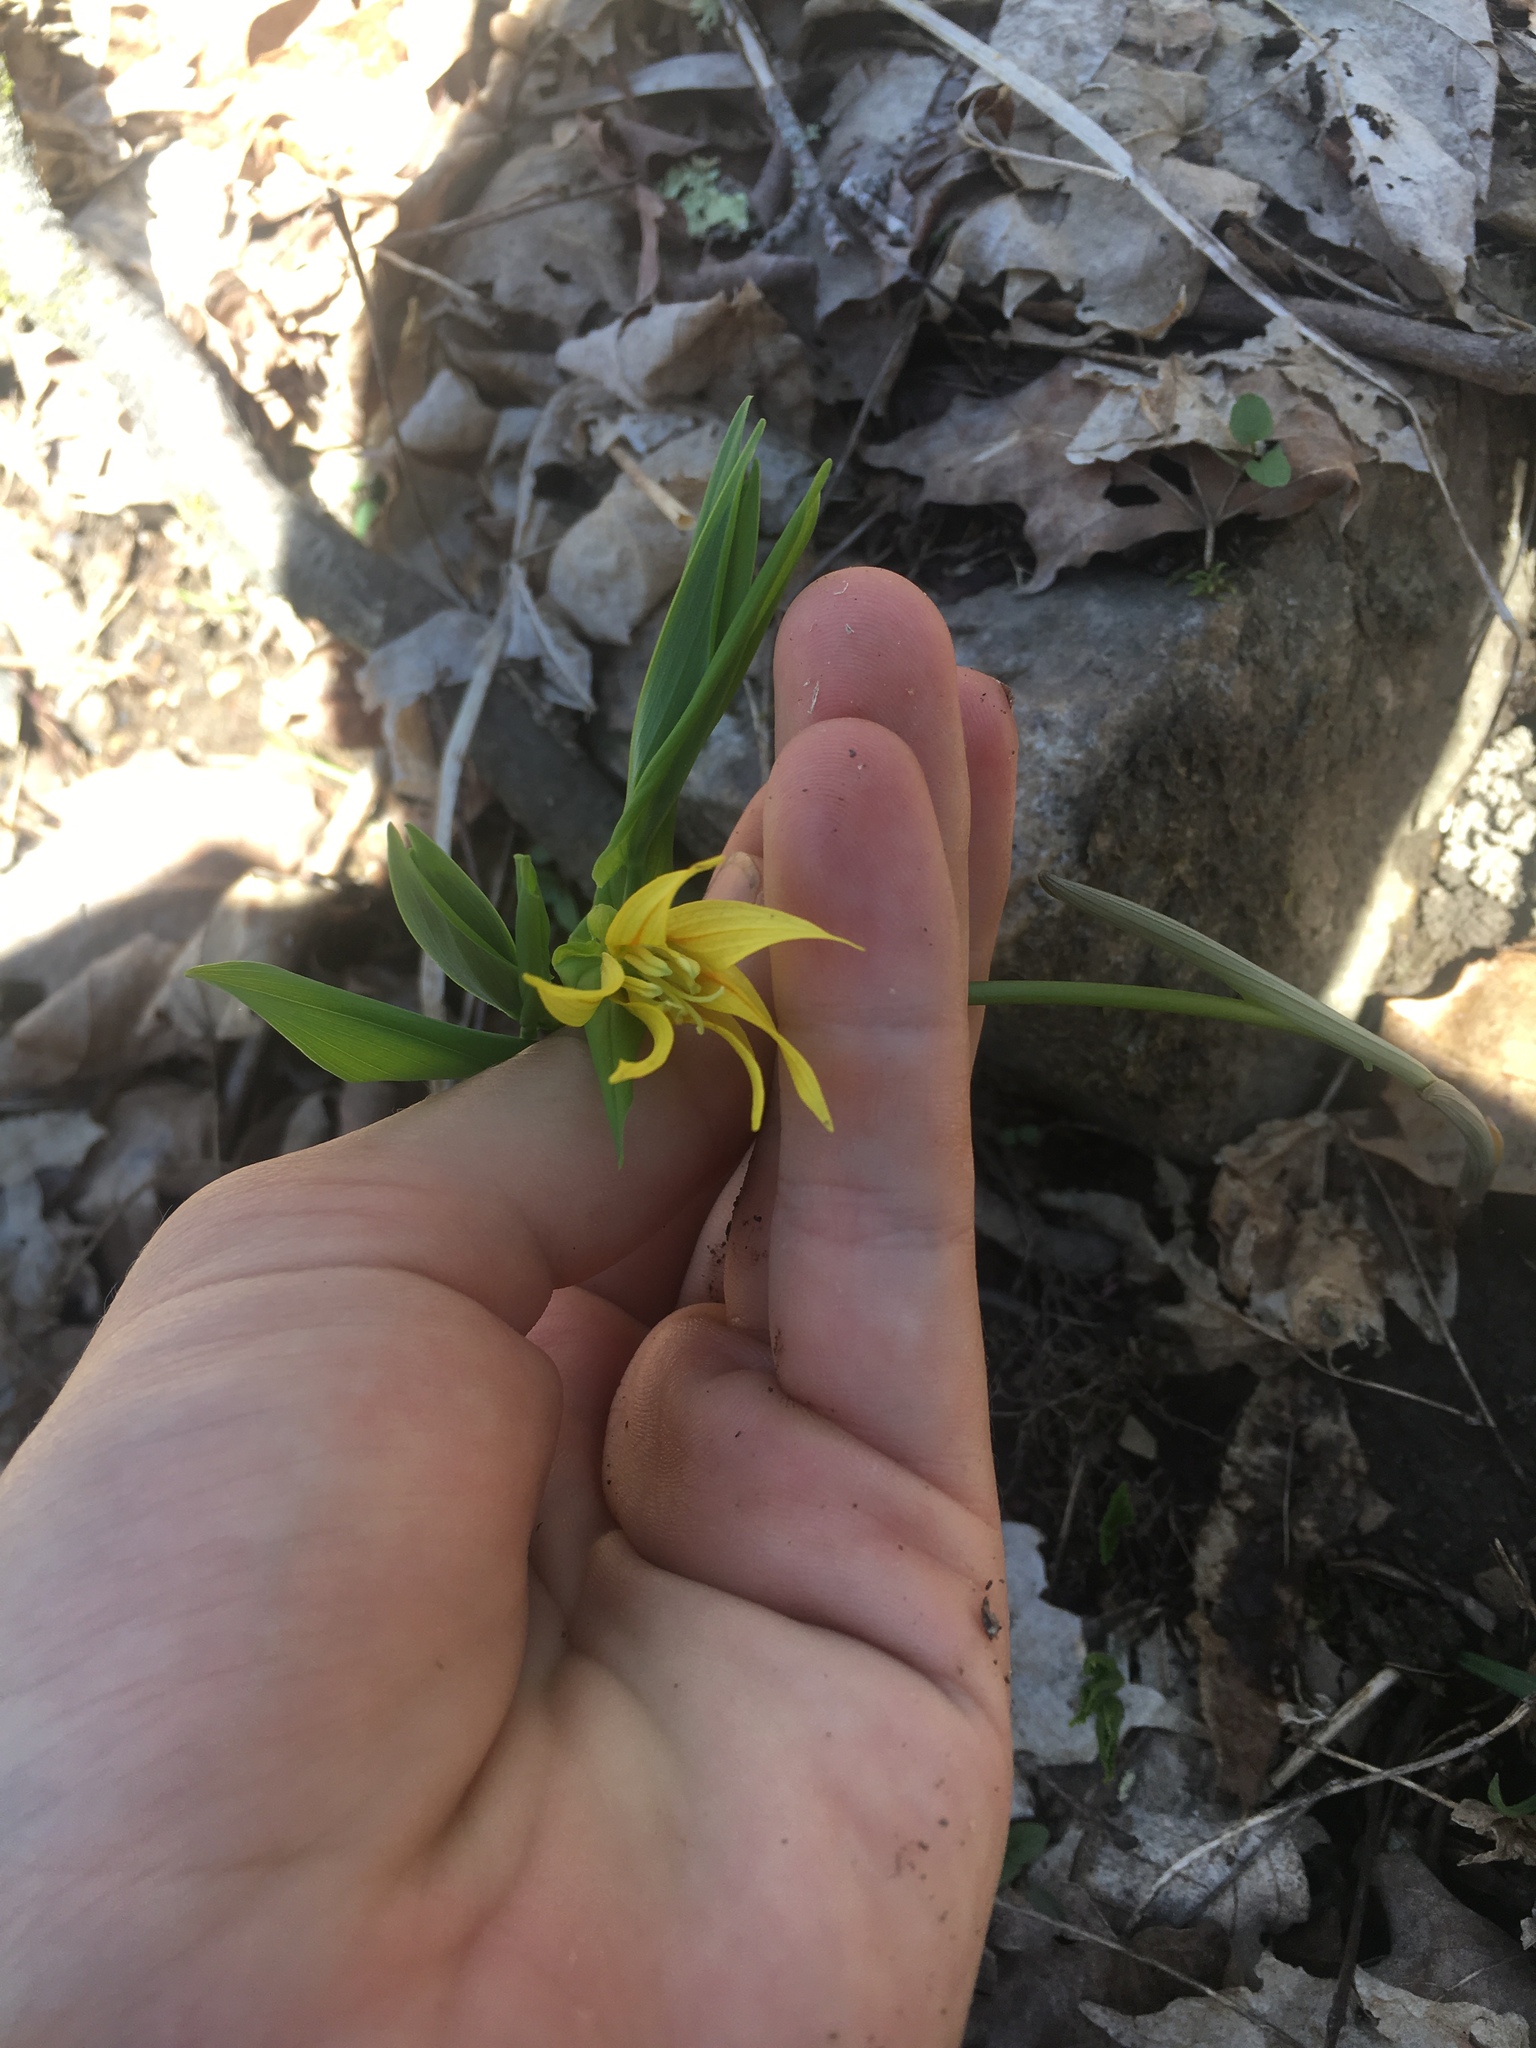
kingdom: Plantae
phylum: Tracheophyta
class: Liliopsida
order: Liliales
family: Colchicaceae
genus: Uvularia
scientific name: Uvularia grandiflora
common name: Bellwort
